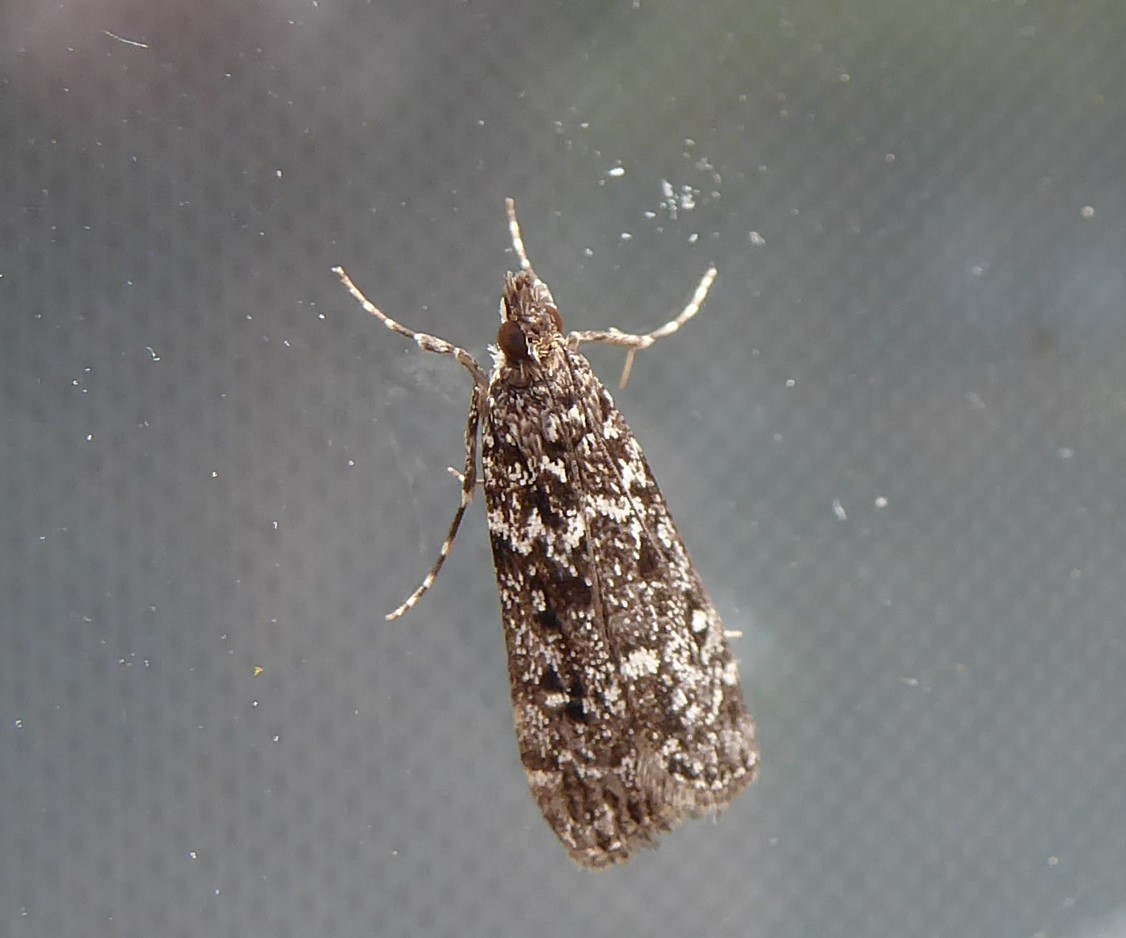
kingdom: Animalia
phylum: Arthropoda
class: Insecta
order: Lepidoptera
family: Crambidae
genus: Eudonia
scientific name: Eudonia philerga
